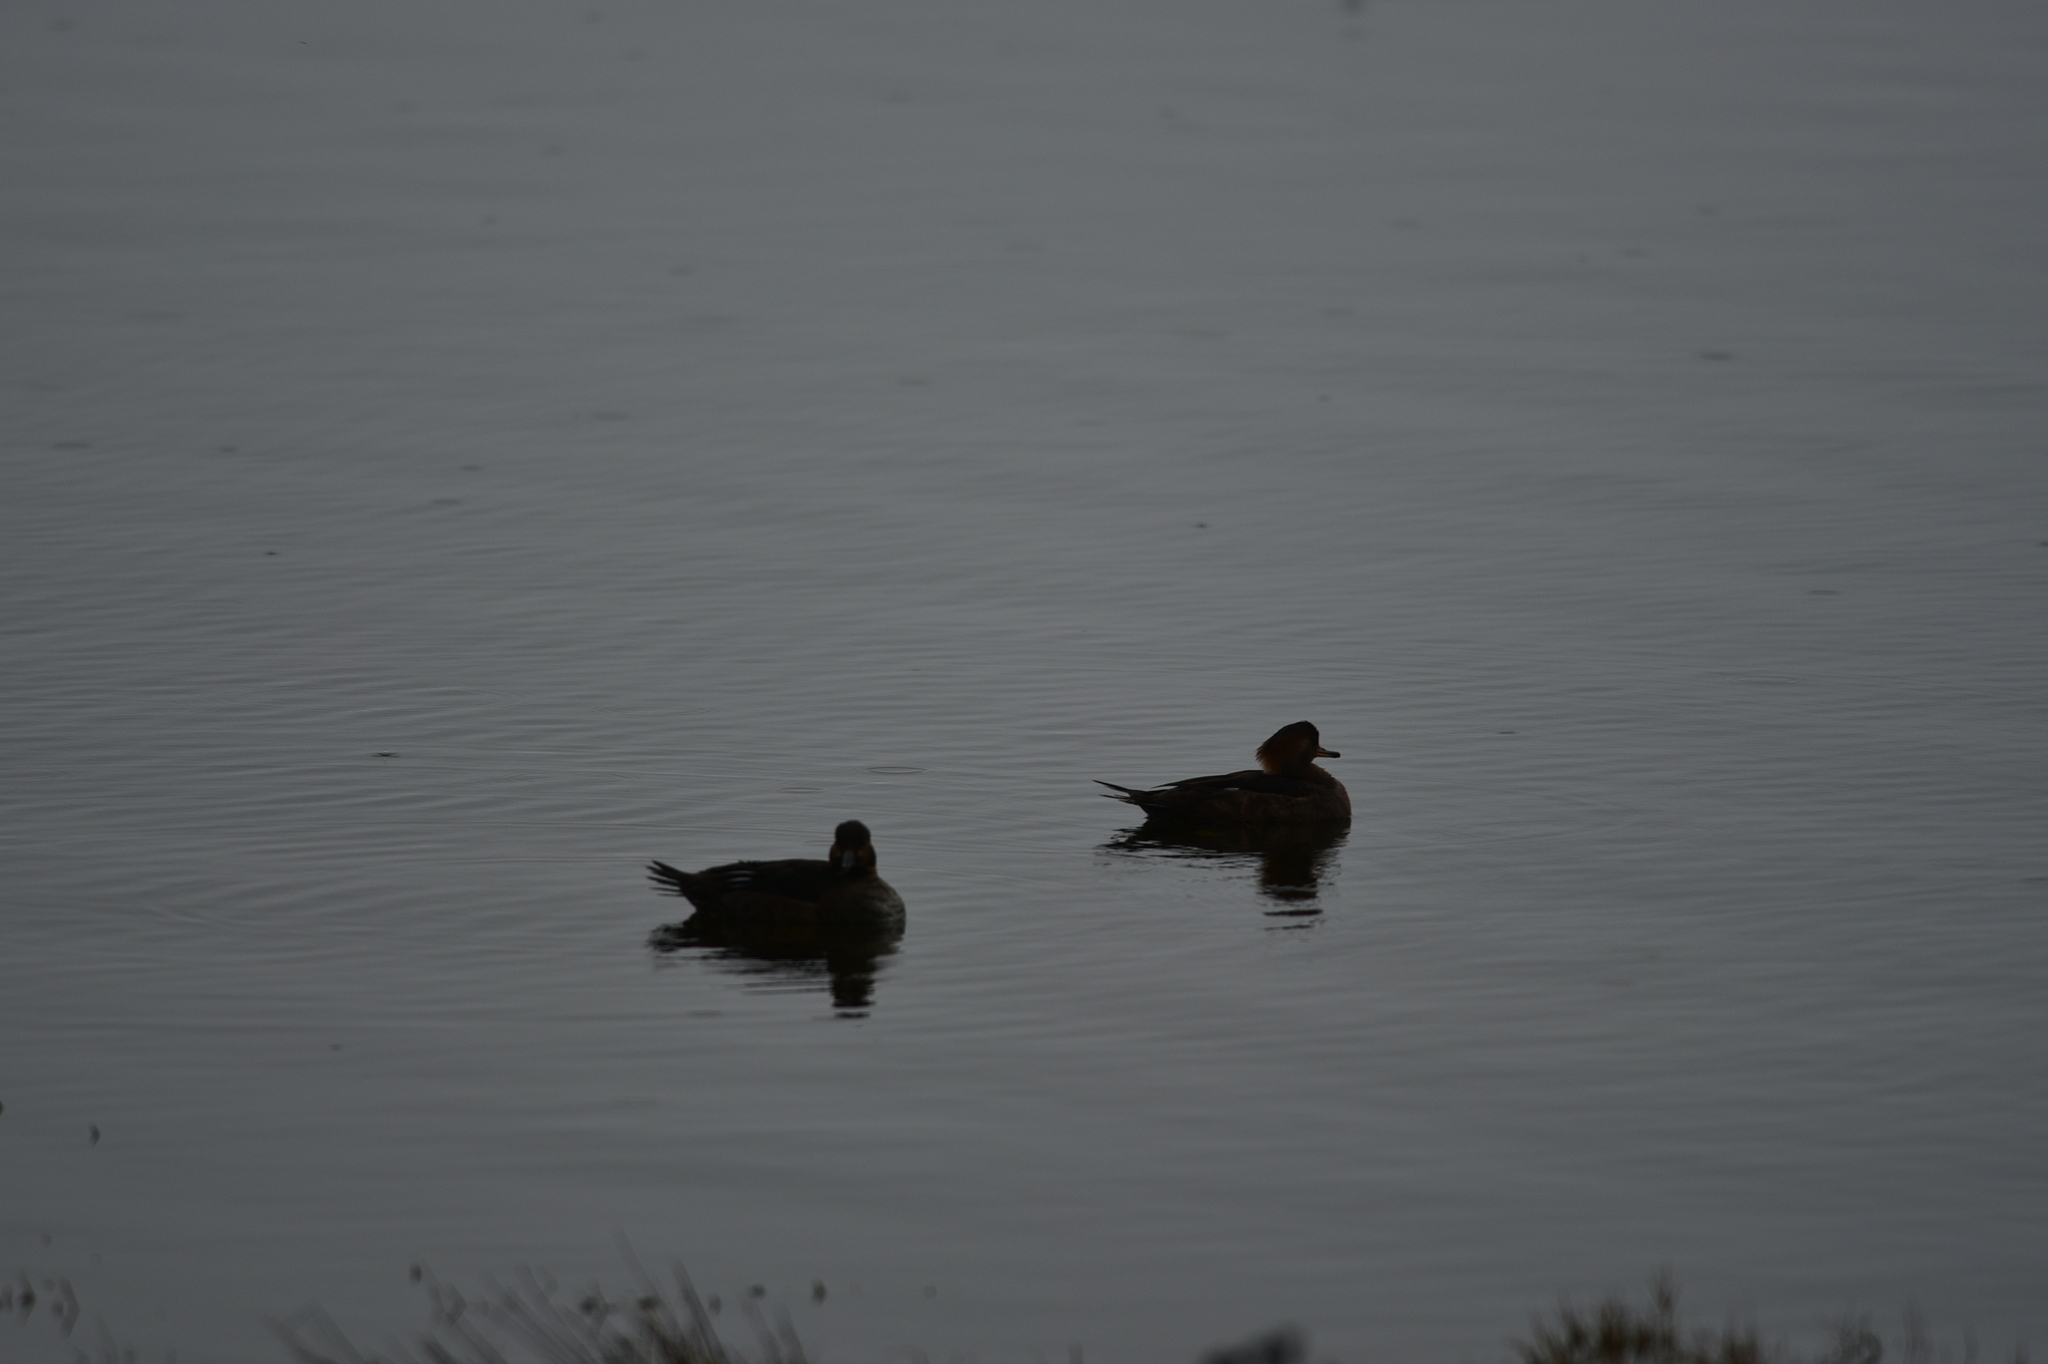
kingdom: Animalia
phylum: Chordata
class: Aves
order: Anseriformes
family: Anatidae
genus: Lophodytes
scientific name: Lophodytes cucullatus
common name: Hooded merganser
